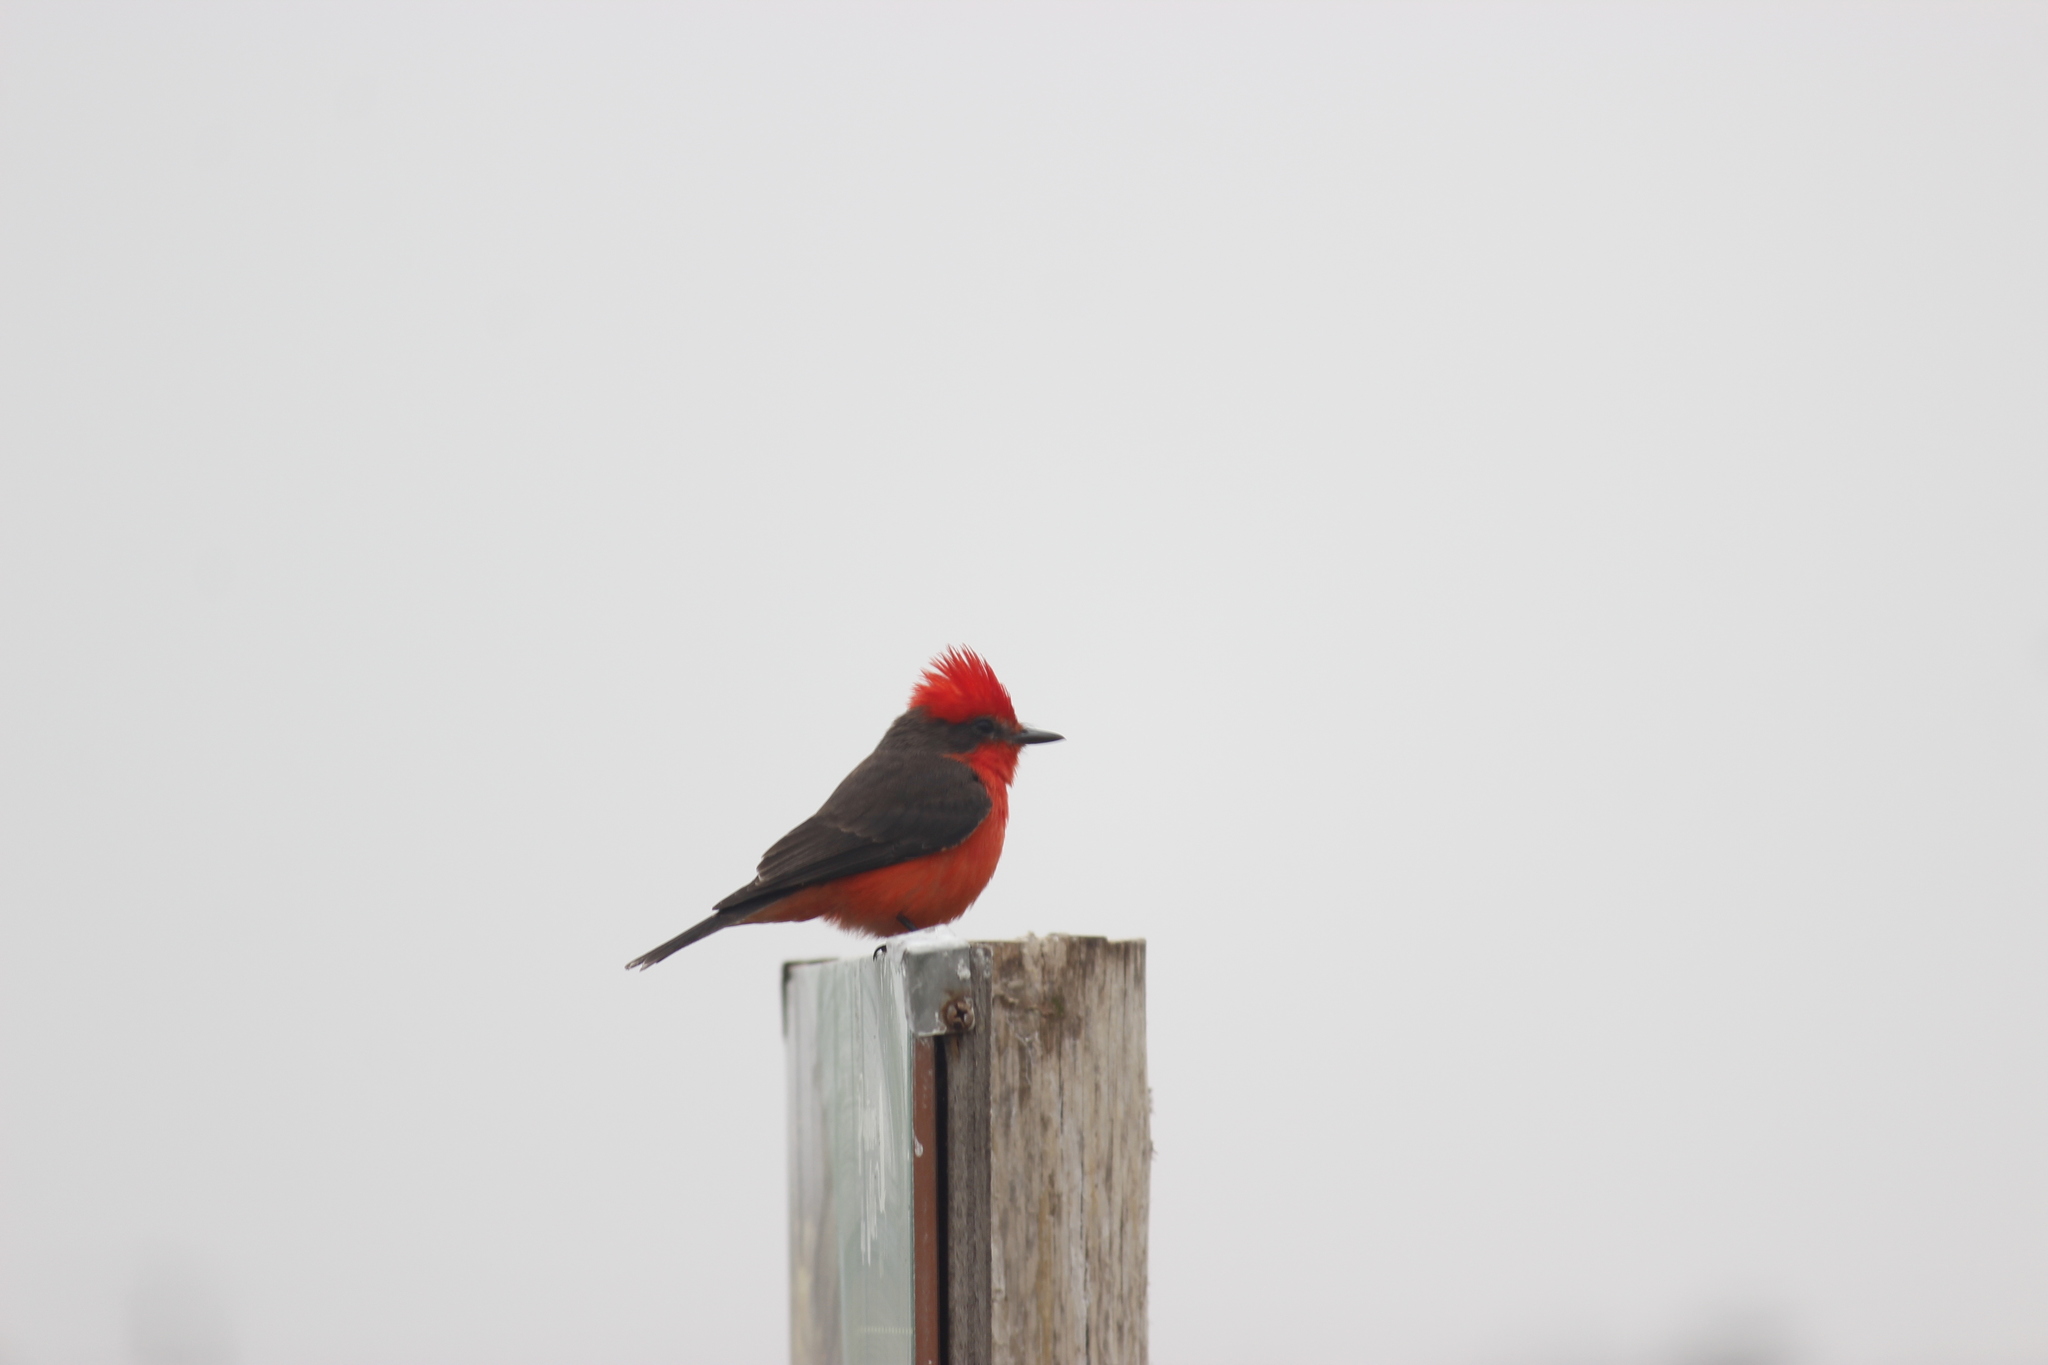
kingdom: Animalia
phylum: Chordata
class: Aves
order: Passeriformes
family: Tyrannidae
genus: Pyrocephalus
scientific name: Pyrocephalus rubinus
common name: Vermilion flycatcher
